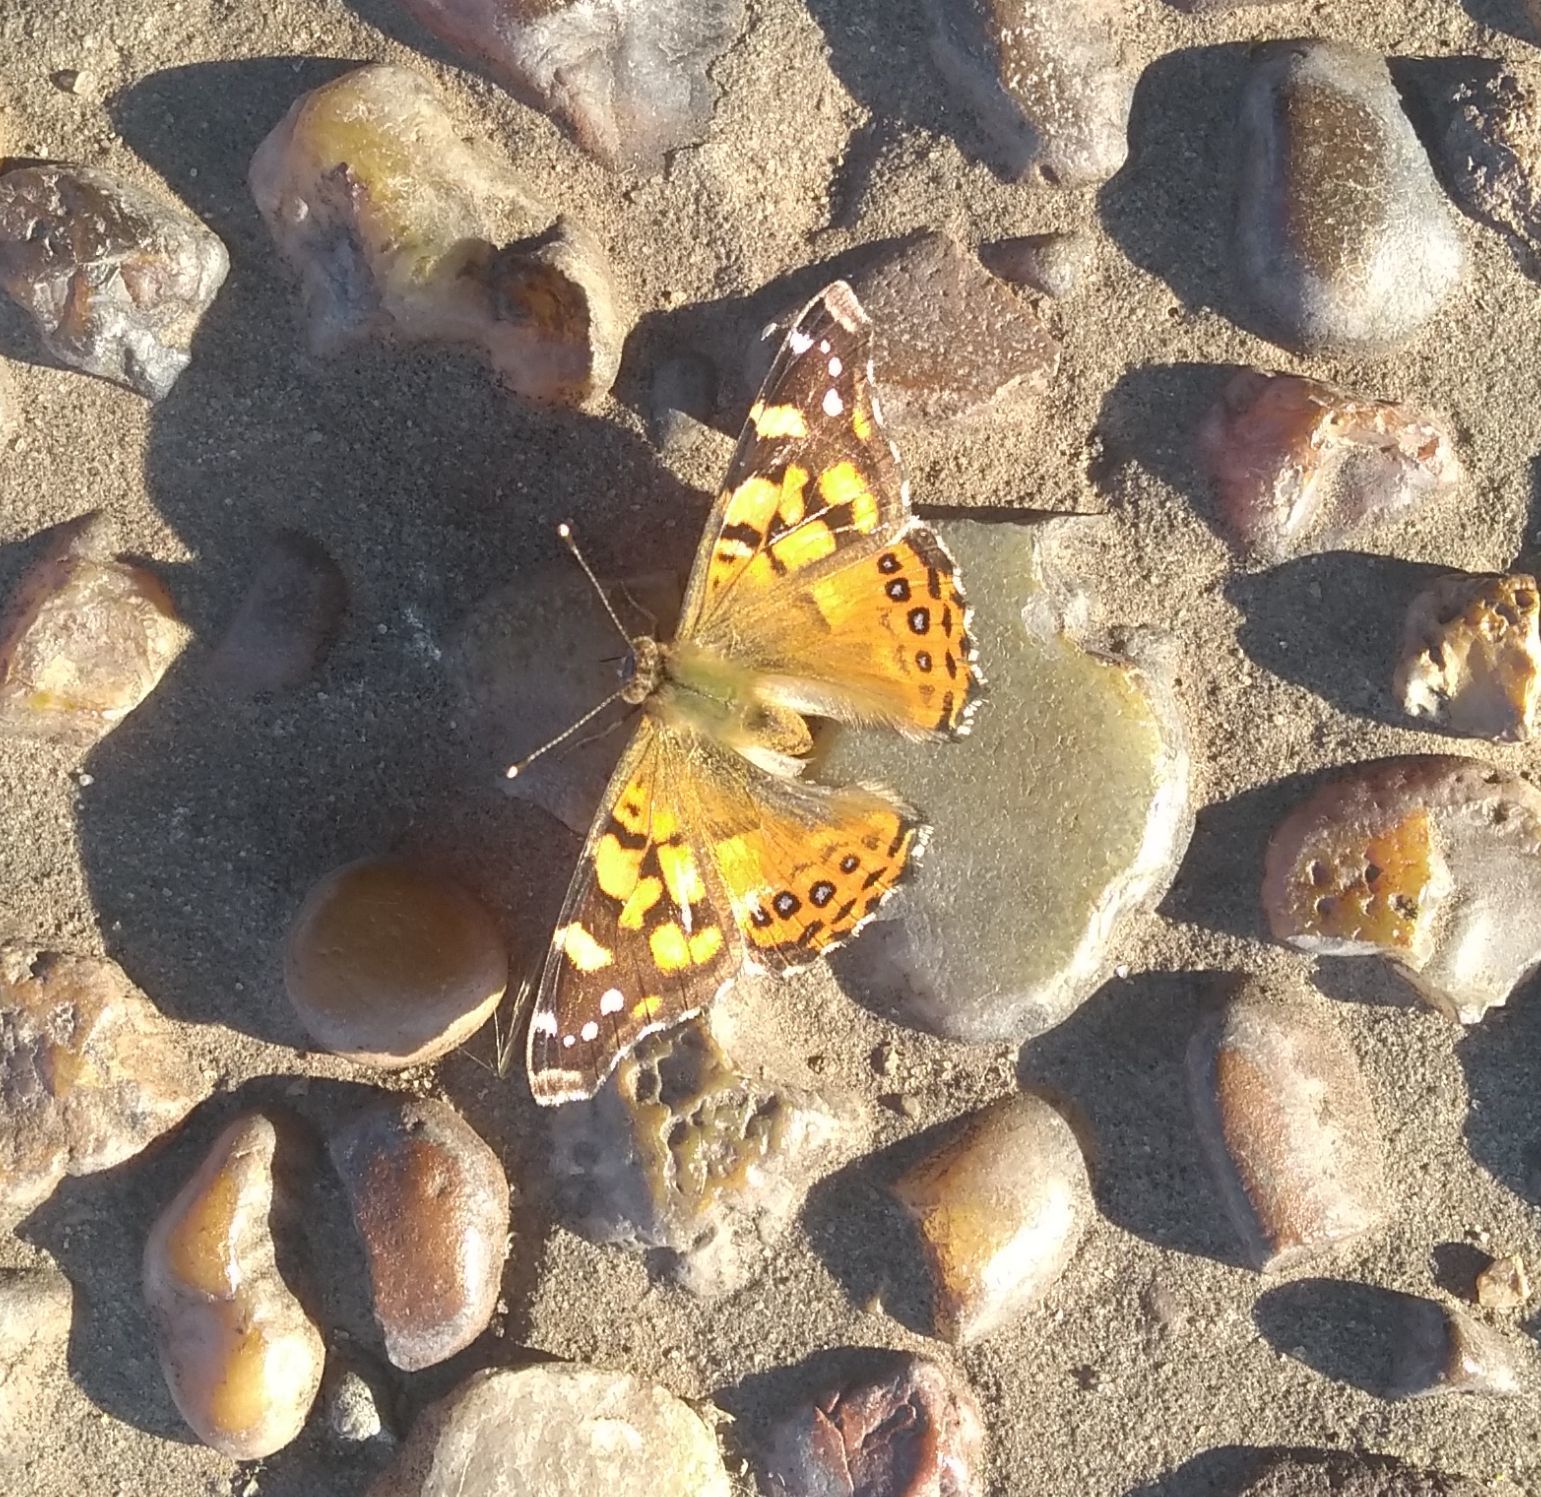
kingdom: Animalia
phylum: Arthropoda
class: Insecta
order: Lepidoptera
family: Nymphalidae
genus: Vanessa
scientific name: Vanessa carye
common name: Subtropical lady
